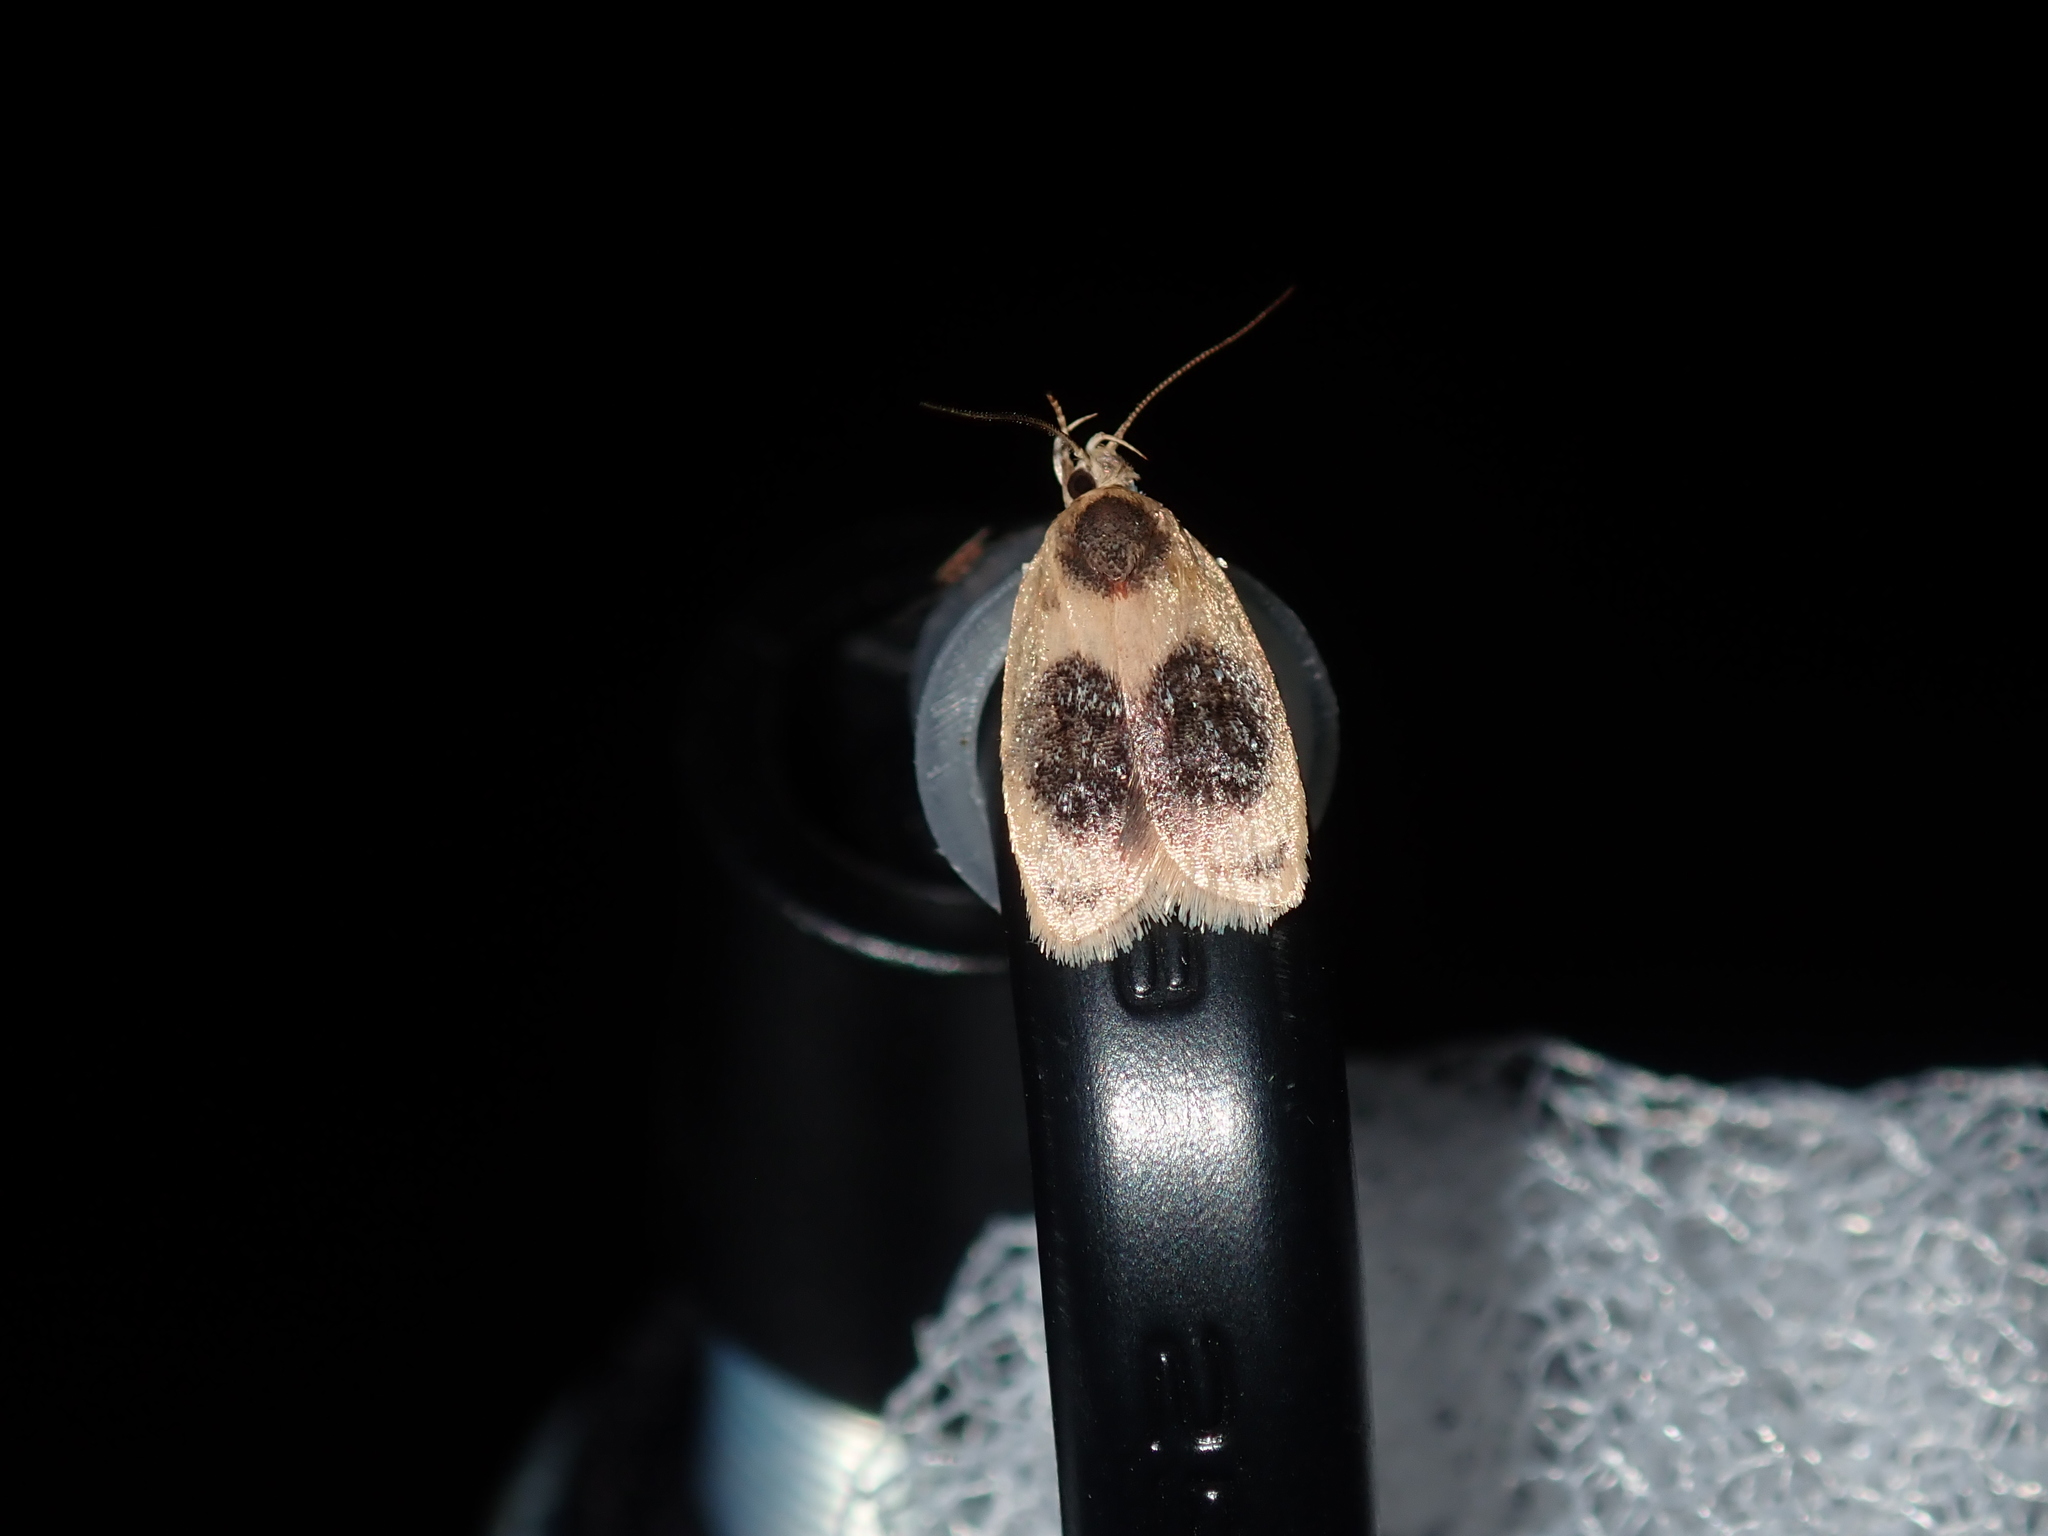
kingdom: Animalia
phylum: Arthropoda
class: Insecta
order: Lepidoptera
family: Oecophoridae
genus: Garrha
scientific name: Garrha ocellifera
